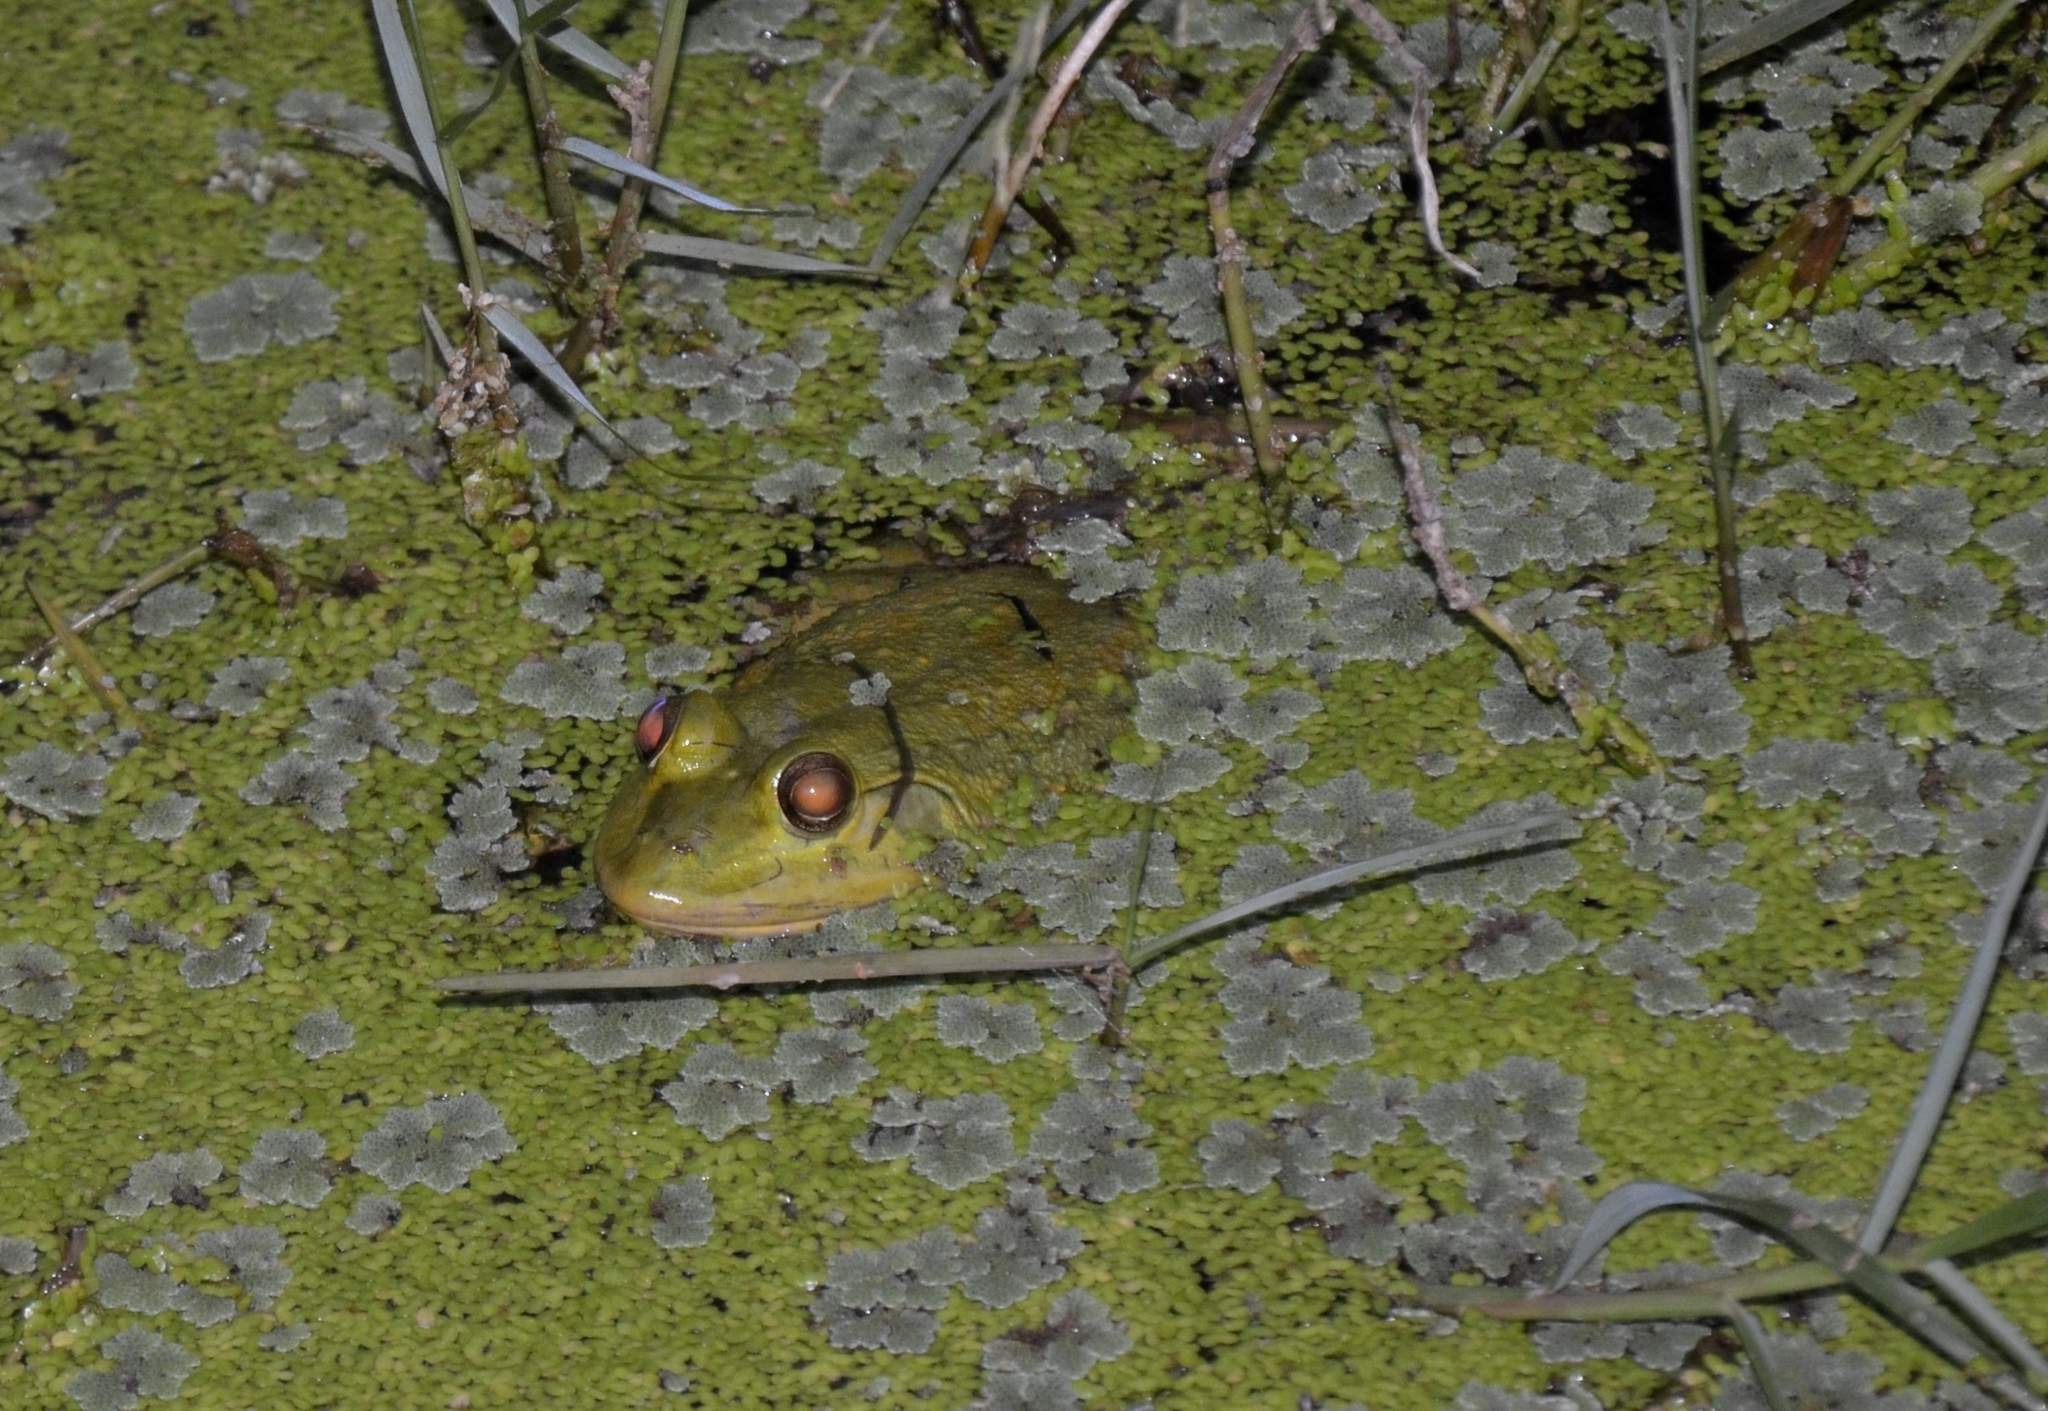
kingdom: Animalia
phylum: Chordata
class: Amphibia
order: Anura
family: Dicroglossidae
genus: Euphlyctis
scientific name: Euphlyctis karaavali
